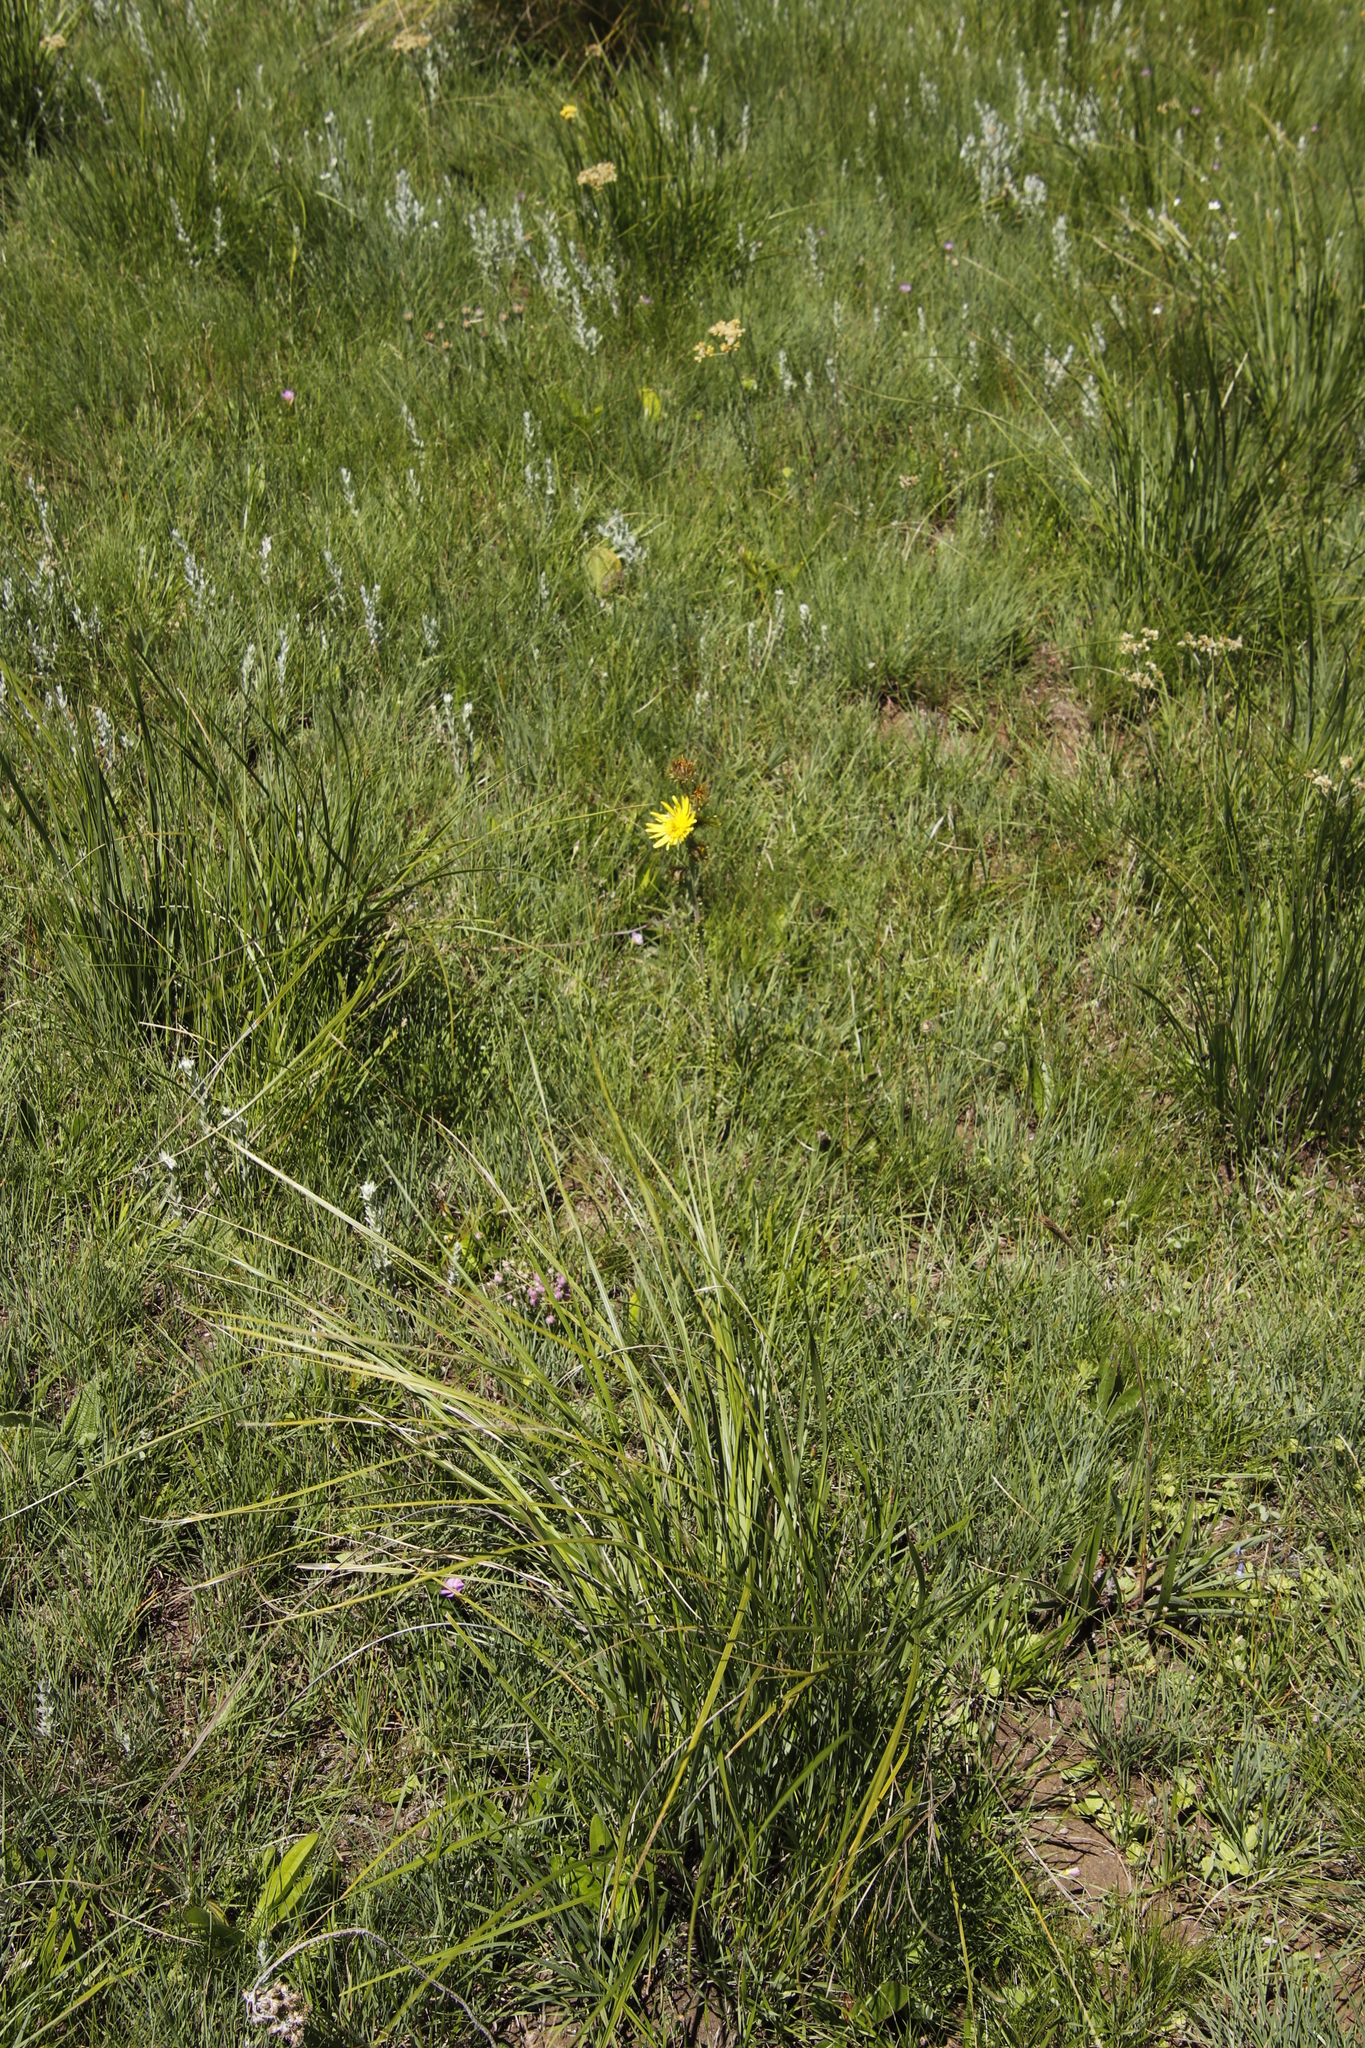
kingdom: Plantae
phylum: Tracheophyta
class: Magnoliopsida
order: Asterales
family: Asteraceae
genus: Berkheya
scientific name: Berkheya rhapontica
